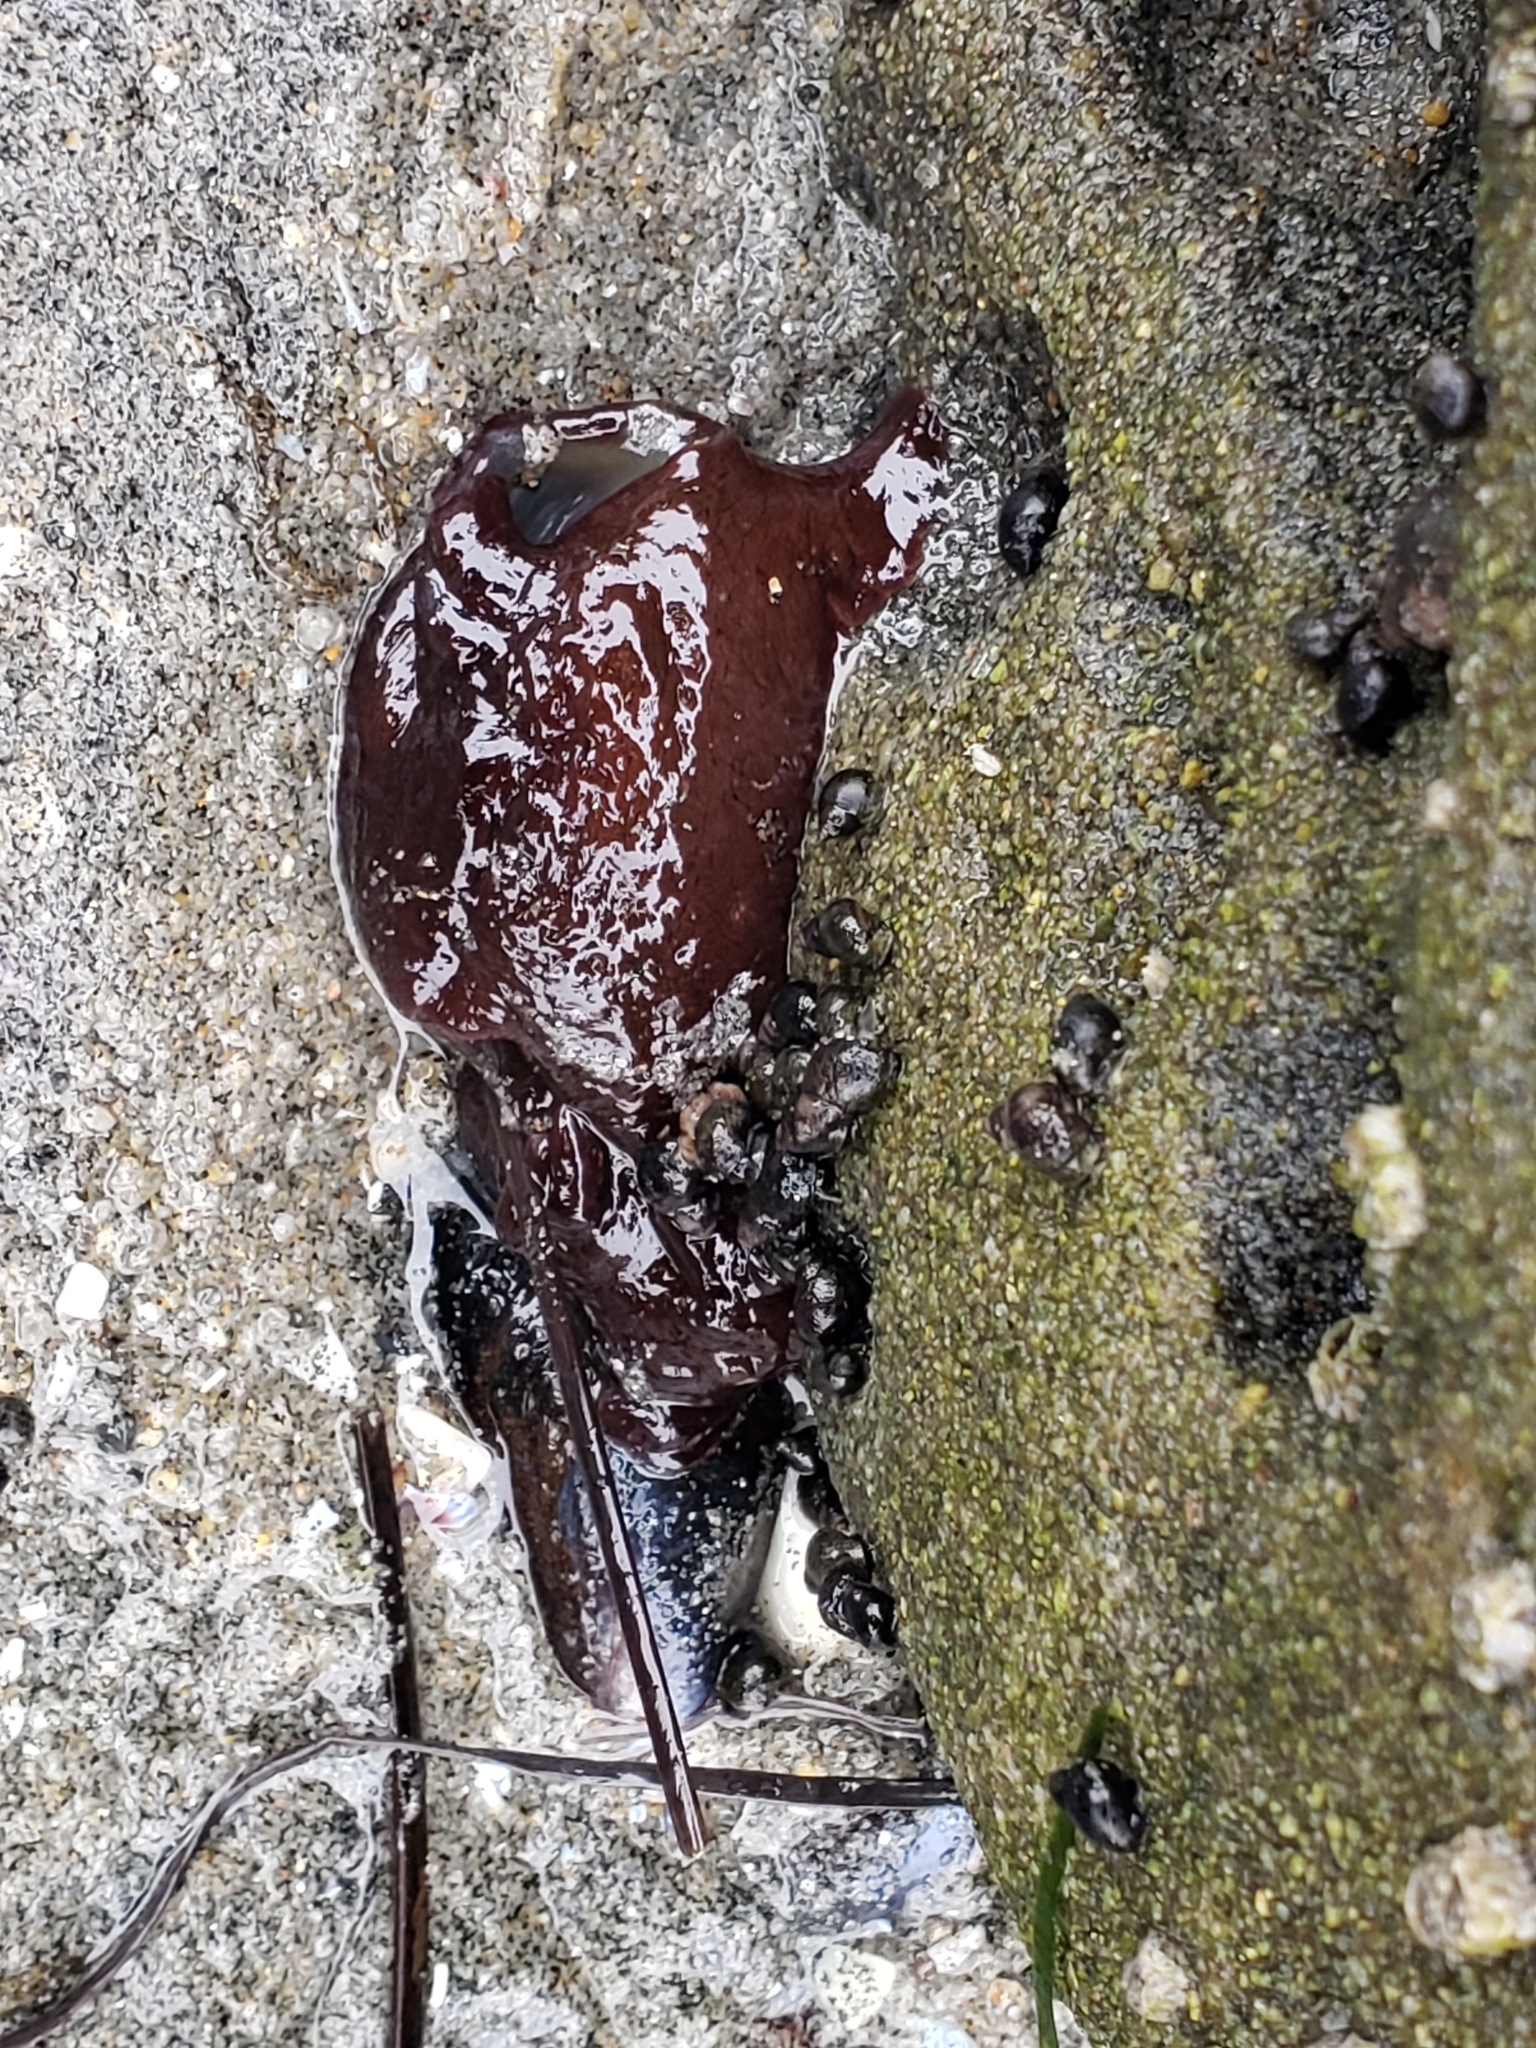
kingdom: Animalia
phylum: Mollusca
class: Gastropoda
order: Aplysiida
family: Aplysiidae
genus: Aplysia
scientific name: Aplysia californica
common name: California seahare
